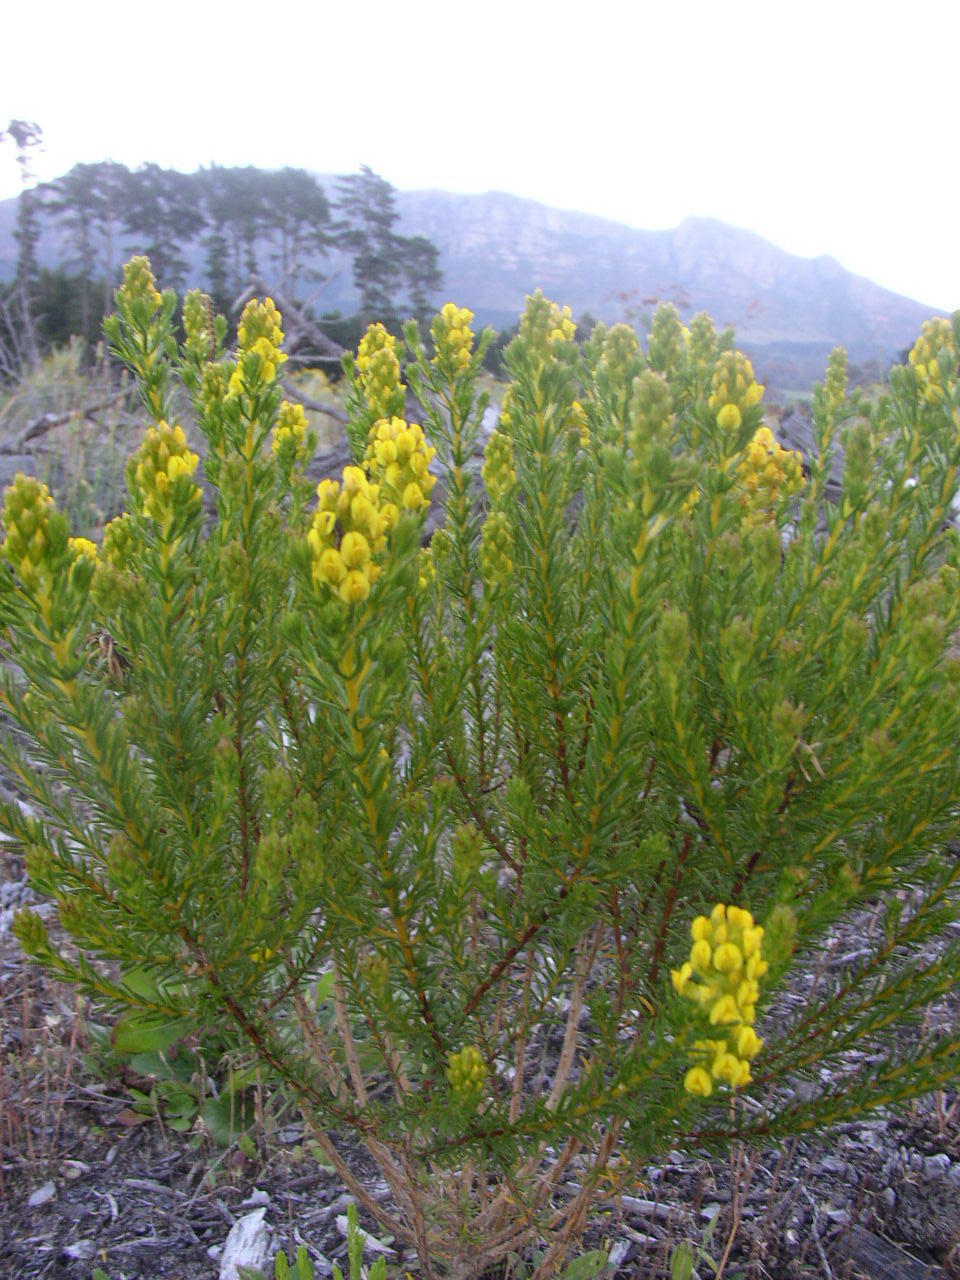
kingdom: Plantae
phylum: Tracheophyta
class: Magnoliopsida
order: Fabales
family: Fabaceae
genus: Aspalathus
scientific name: Aspalathus callosa
